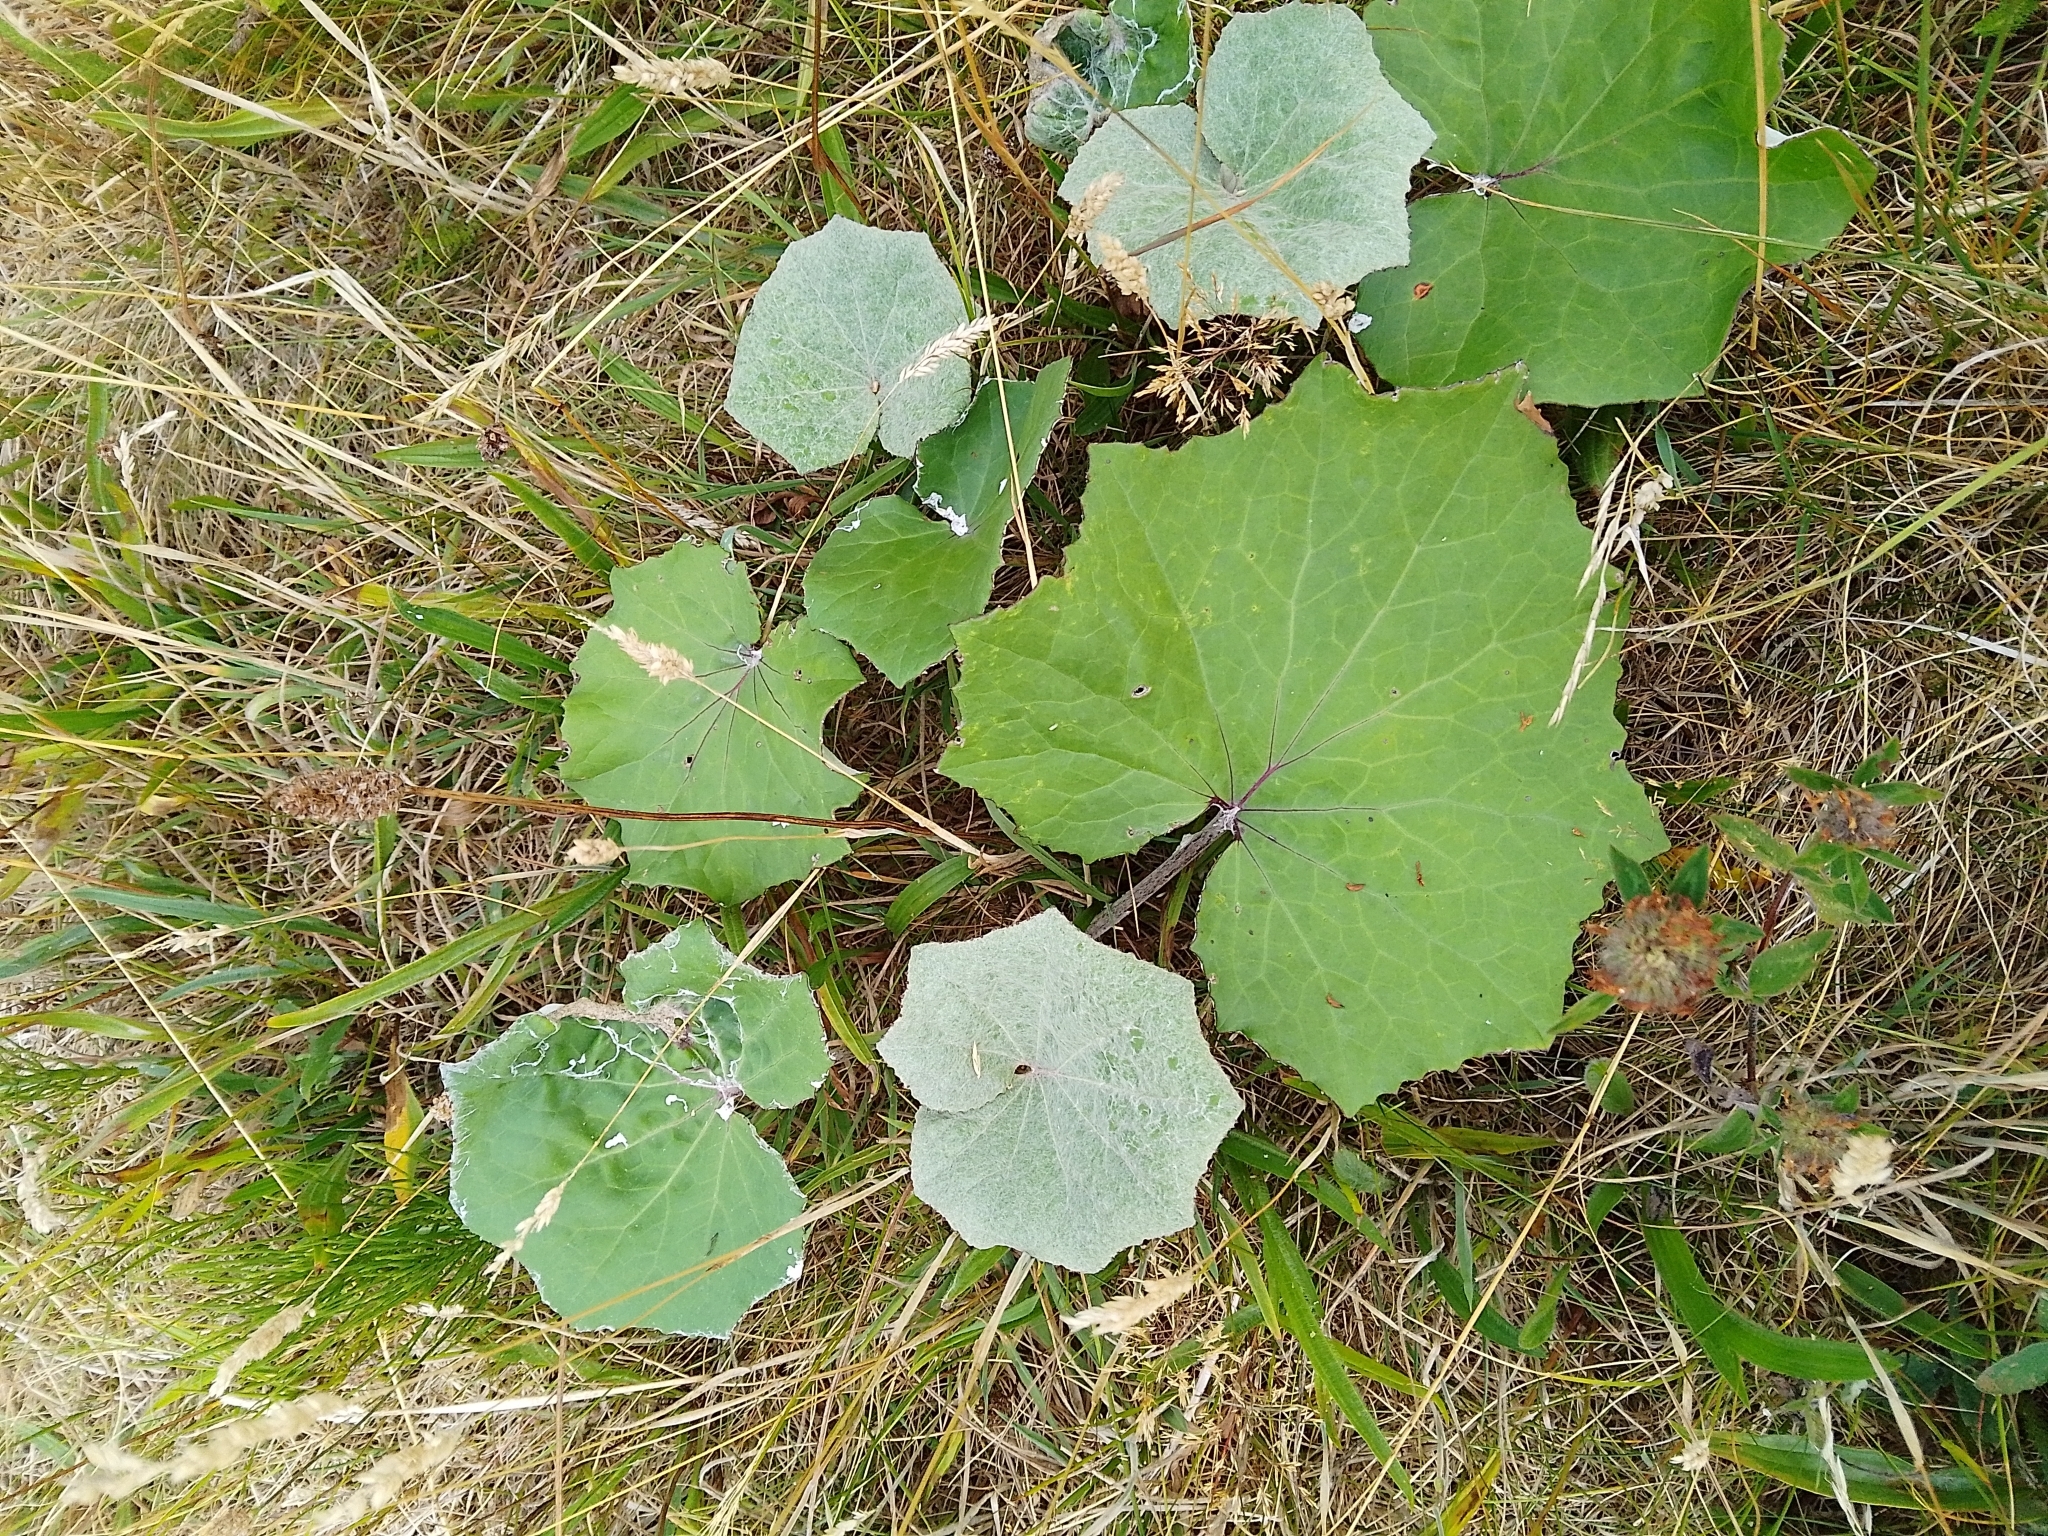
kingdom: Plantae
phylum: Tracheophyta
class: Magnoliopsida
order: Asterales
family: Asteraceae
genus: Tussilago
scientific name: Tussilago farfara
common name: Coltsfoot
